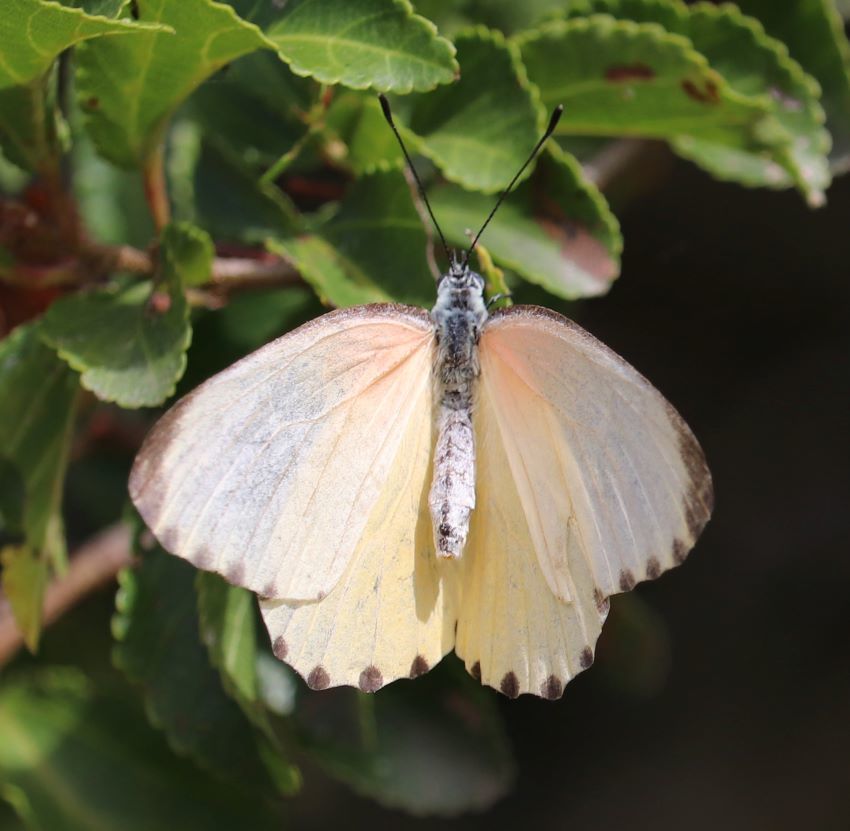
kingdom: Animalia
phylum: Arthropoda
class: Insecta
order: Lepidoptera
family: Pieridae
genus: Mylothris
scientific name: Mylothris agathina
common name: Eastern dotted border
